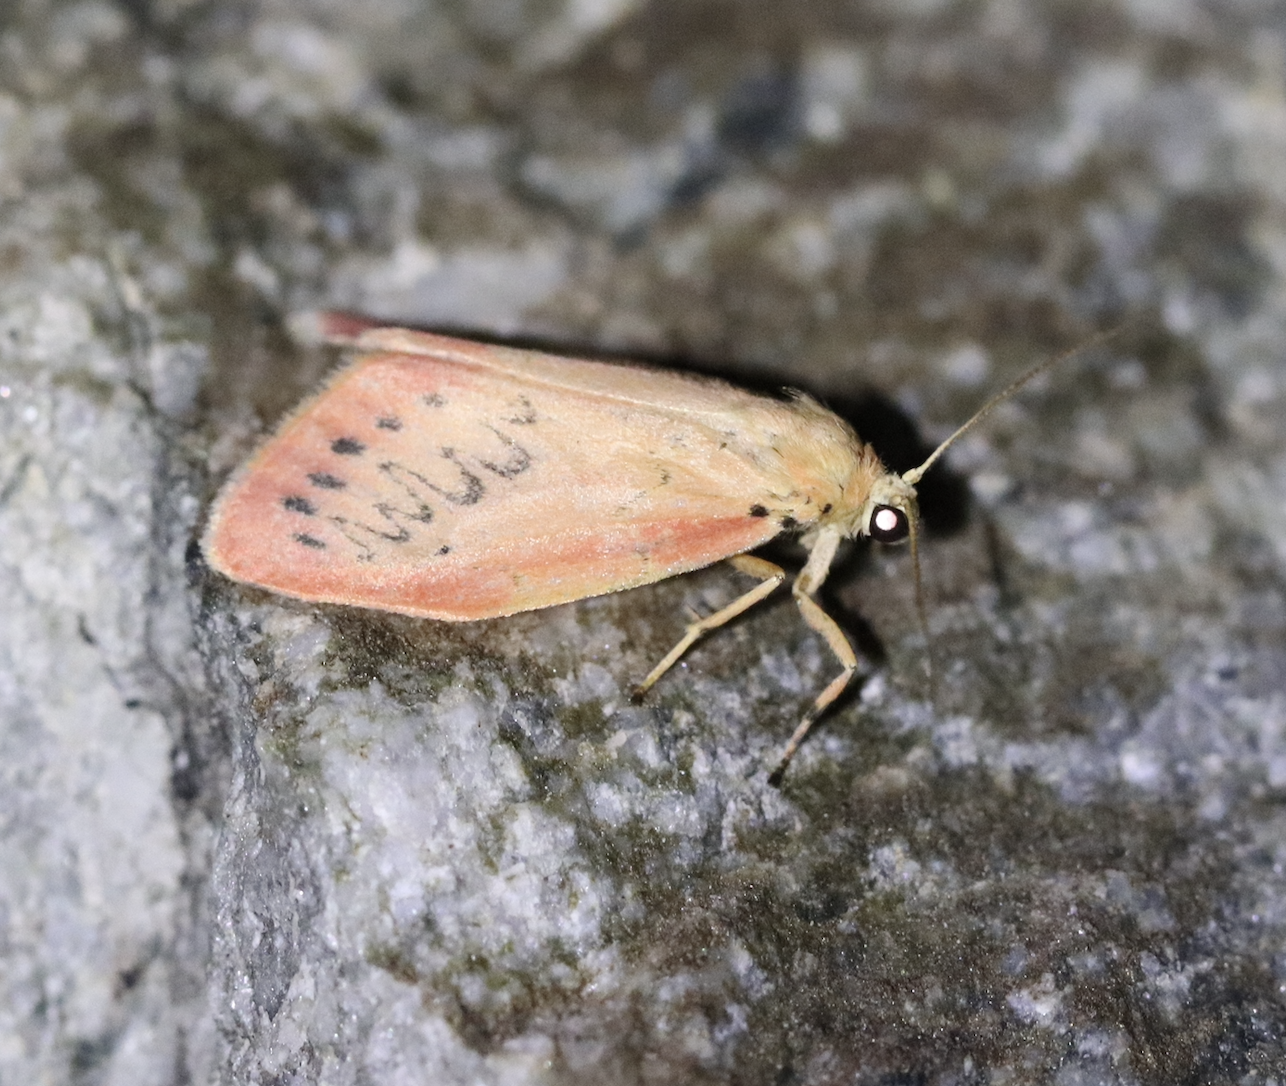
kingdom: Animalia
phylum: Arthropoda
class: Insecta
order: Lepidoptera
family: Erebidae
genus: Miltochrista
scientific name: Miltochrista miniata
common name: Rosy footman
